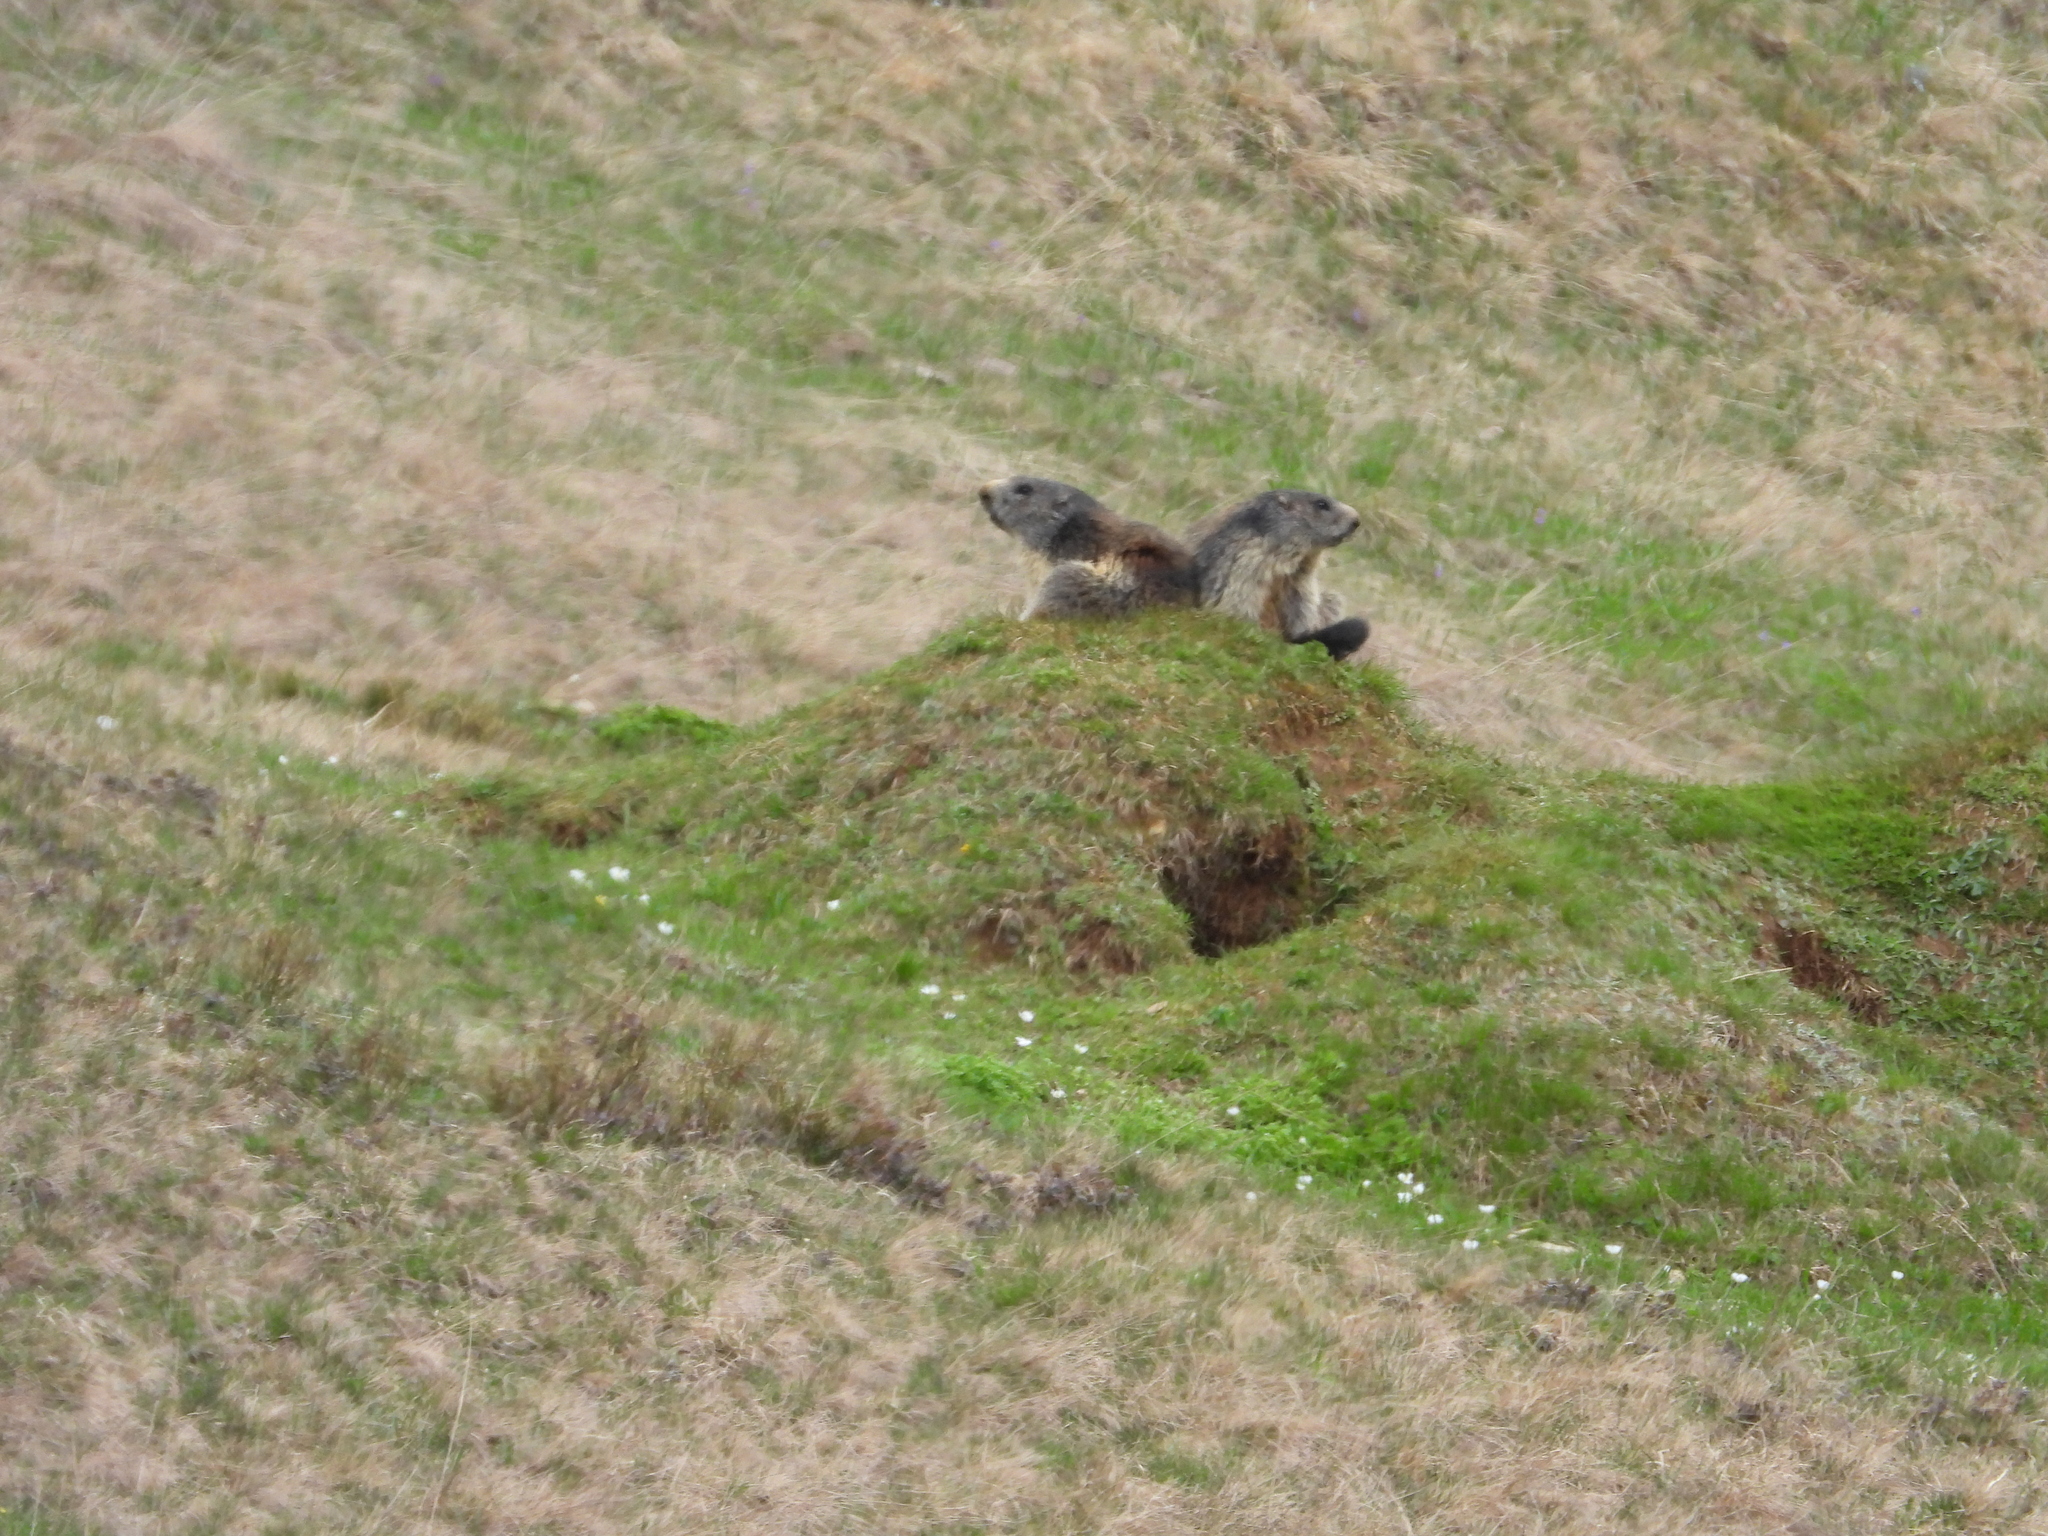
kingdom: Animalia
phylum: Chordata
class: Mammalia
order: Rodentia
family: Sciuridae
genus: Marmota
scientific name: Marmota marmota
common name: Alpine marmot
